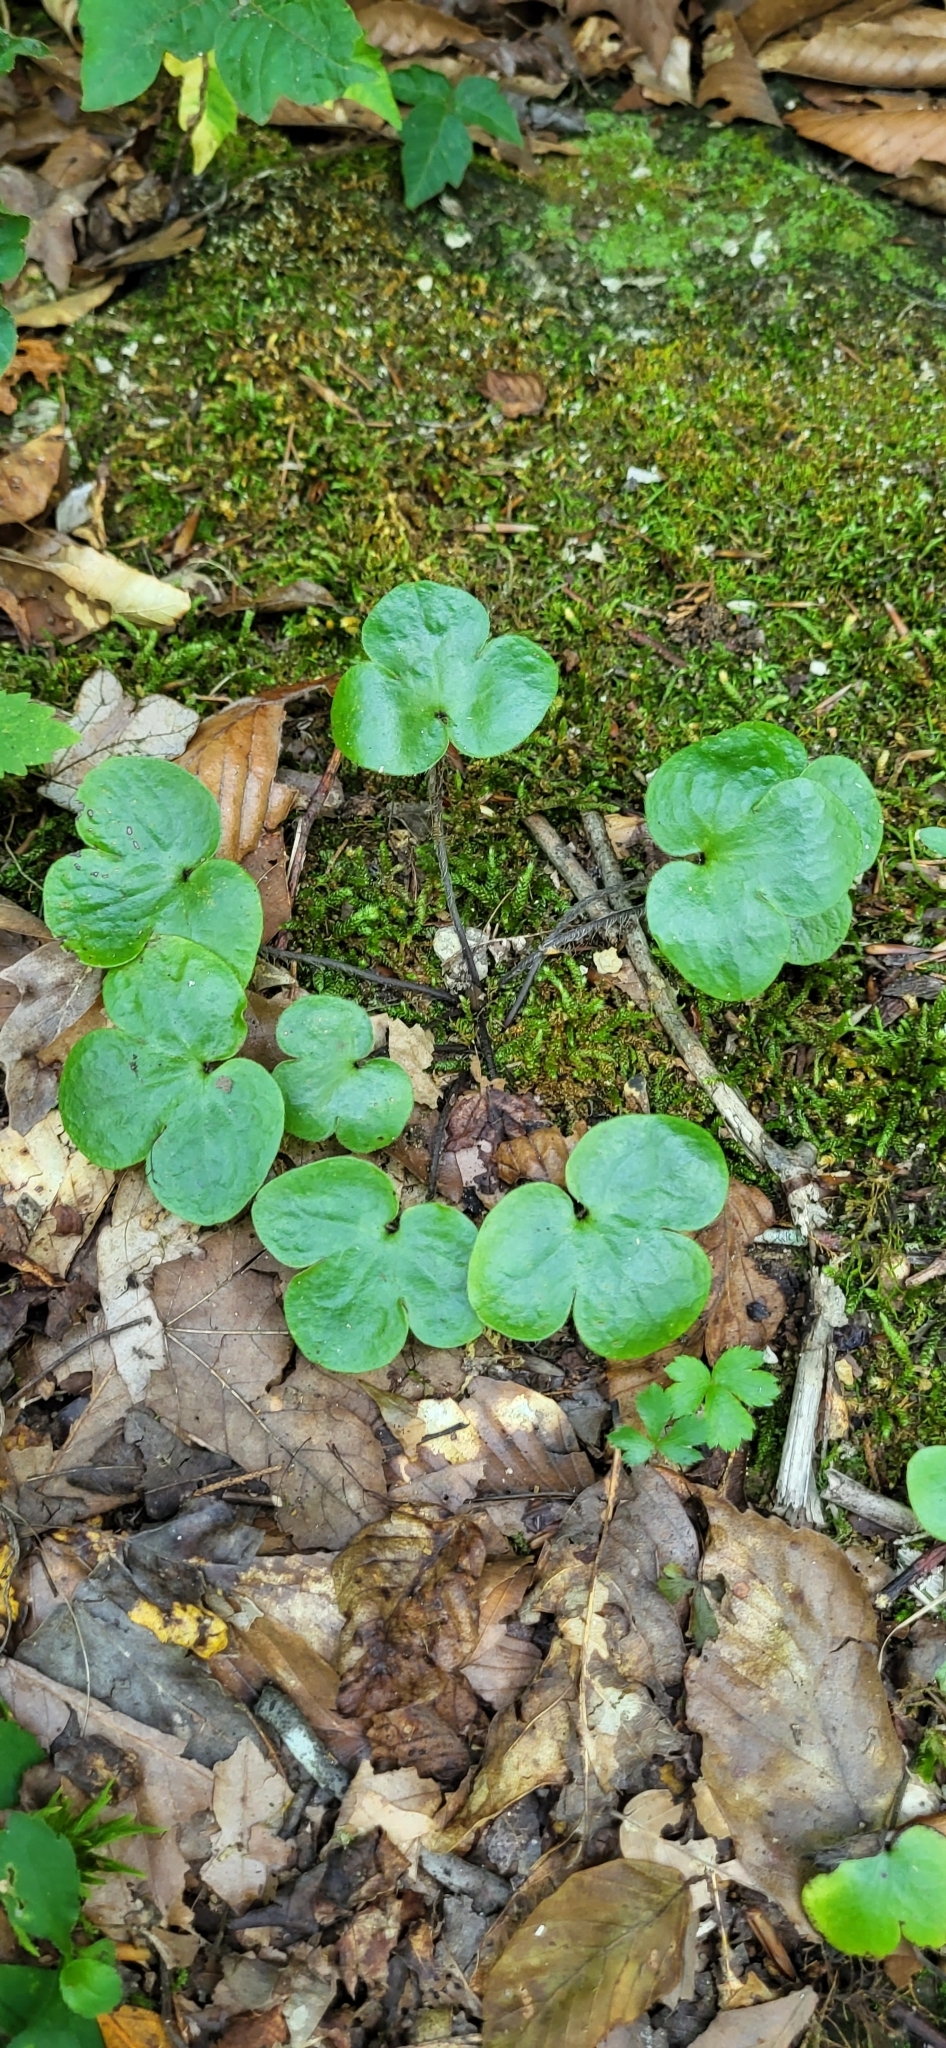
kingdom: Plantae
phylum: Tracheophyta
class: Magnoliopsida
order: Ranunculales
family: Ranunculaceae
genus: Hepatica
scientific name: Hepatica americana
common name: American hepatica
